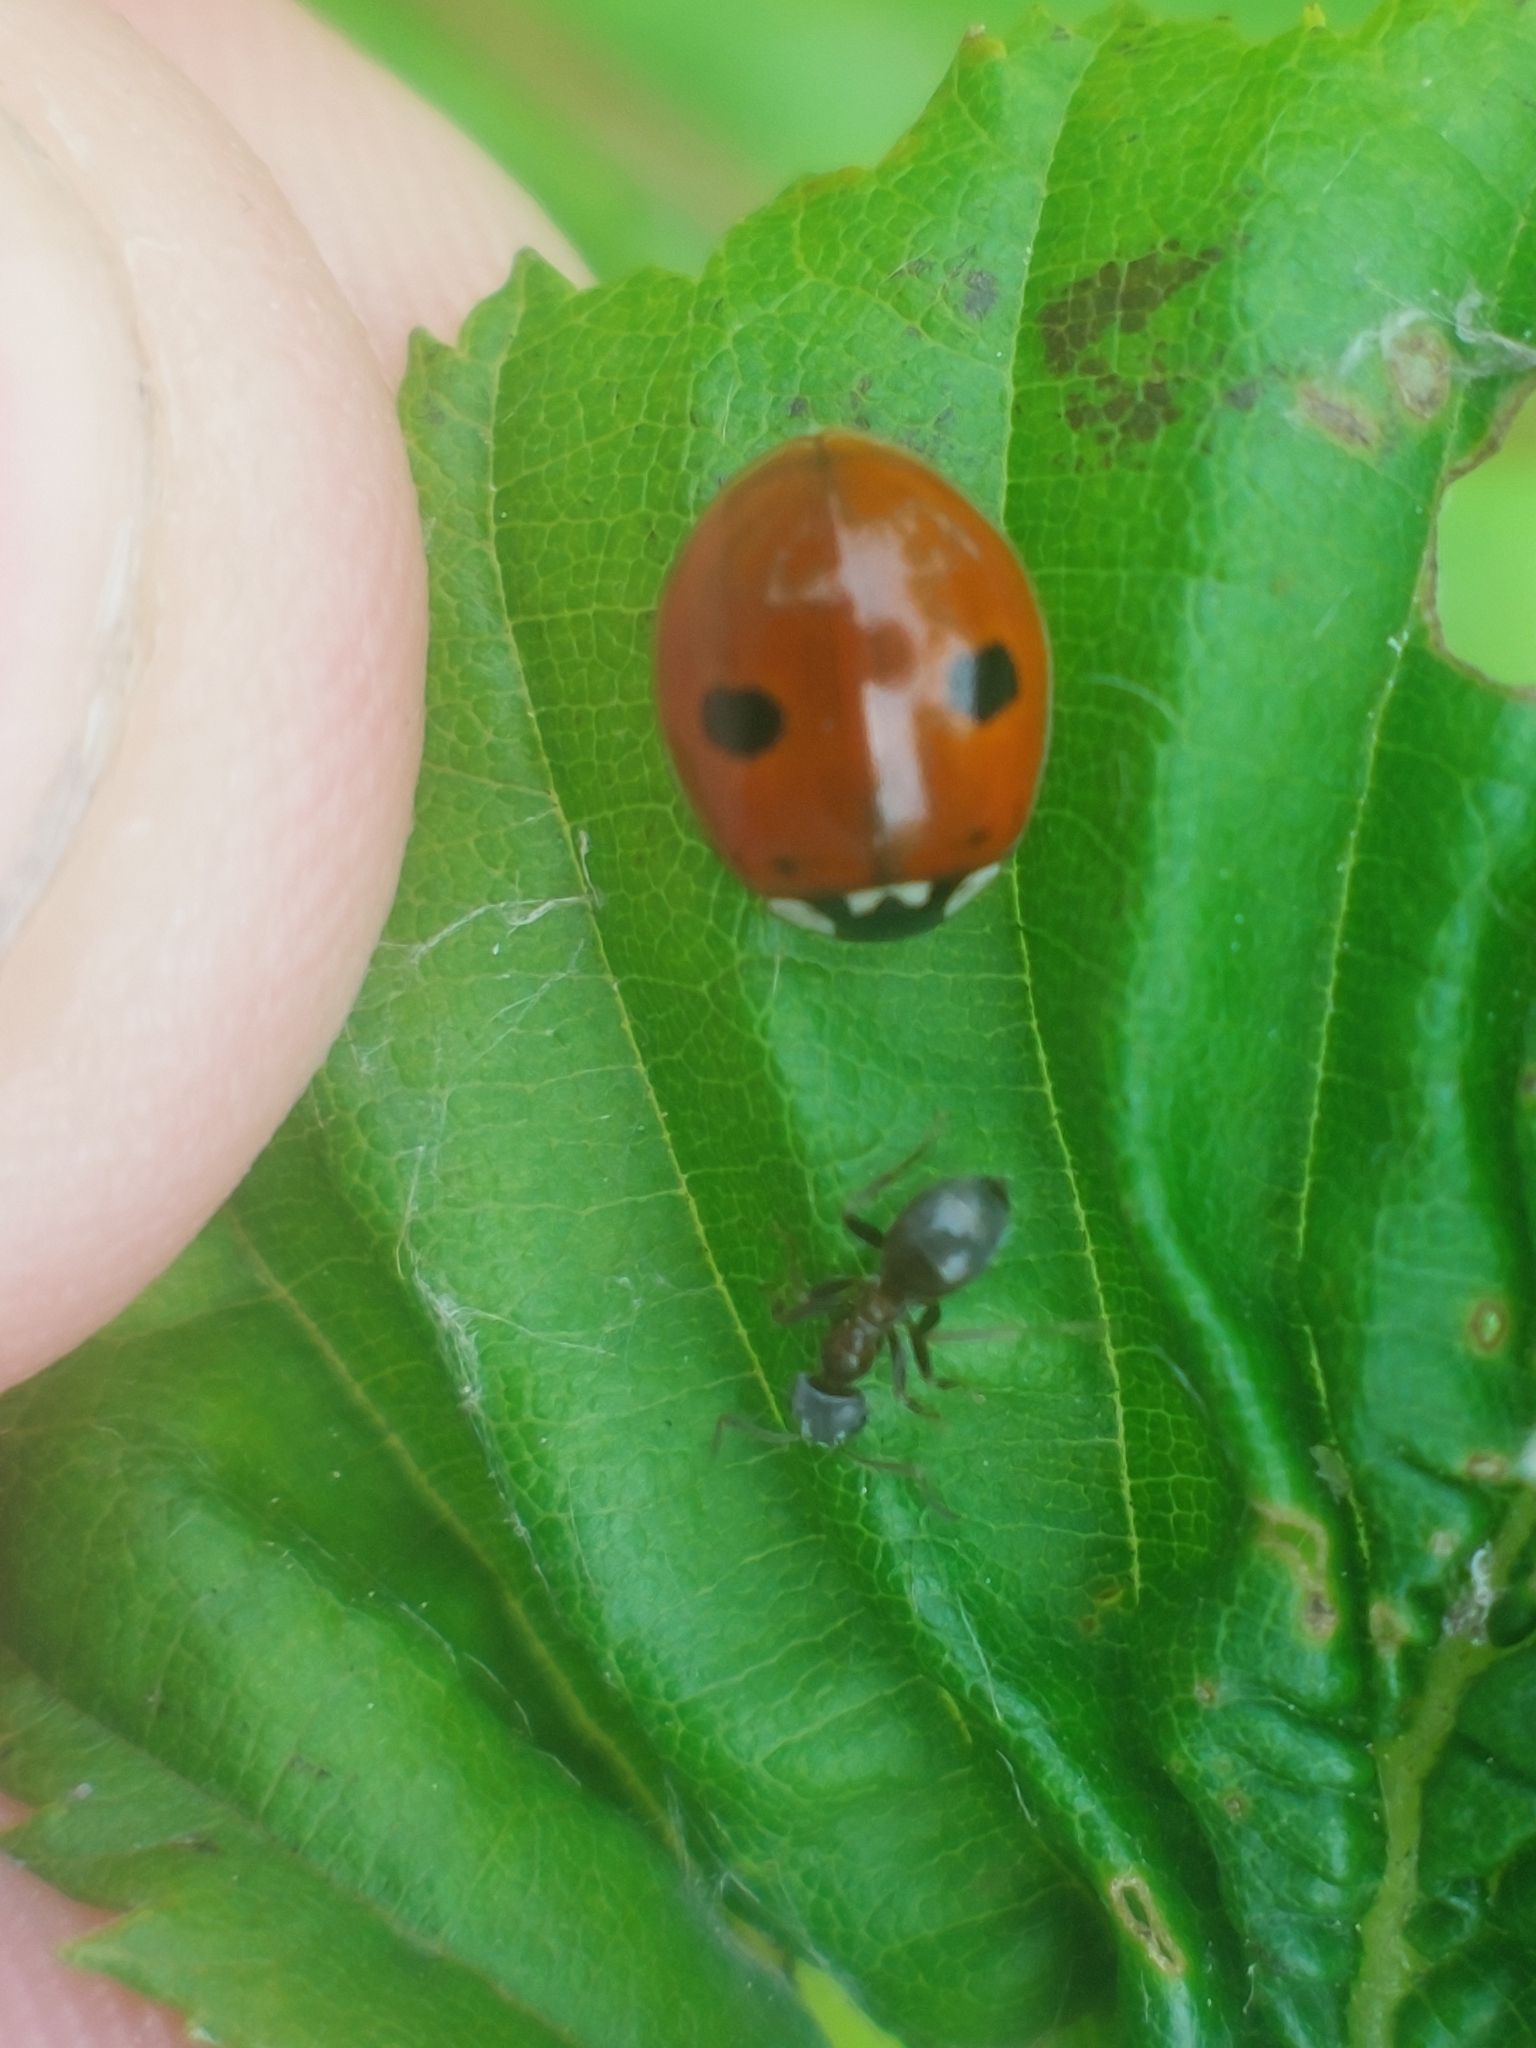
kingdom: Animalia
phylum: Arthropoda
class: Insecta
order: Coleoptera
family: Coccinellidae
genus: Adalia
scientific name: Adalia bipunctata
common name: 2-spot ladybird
